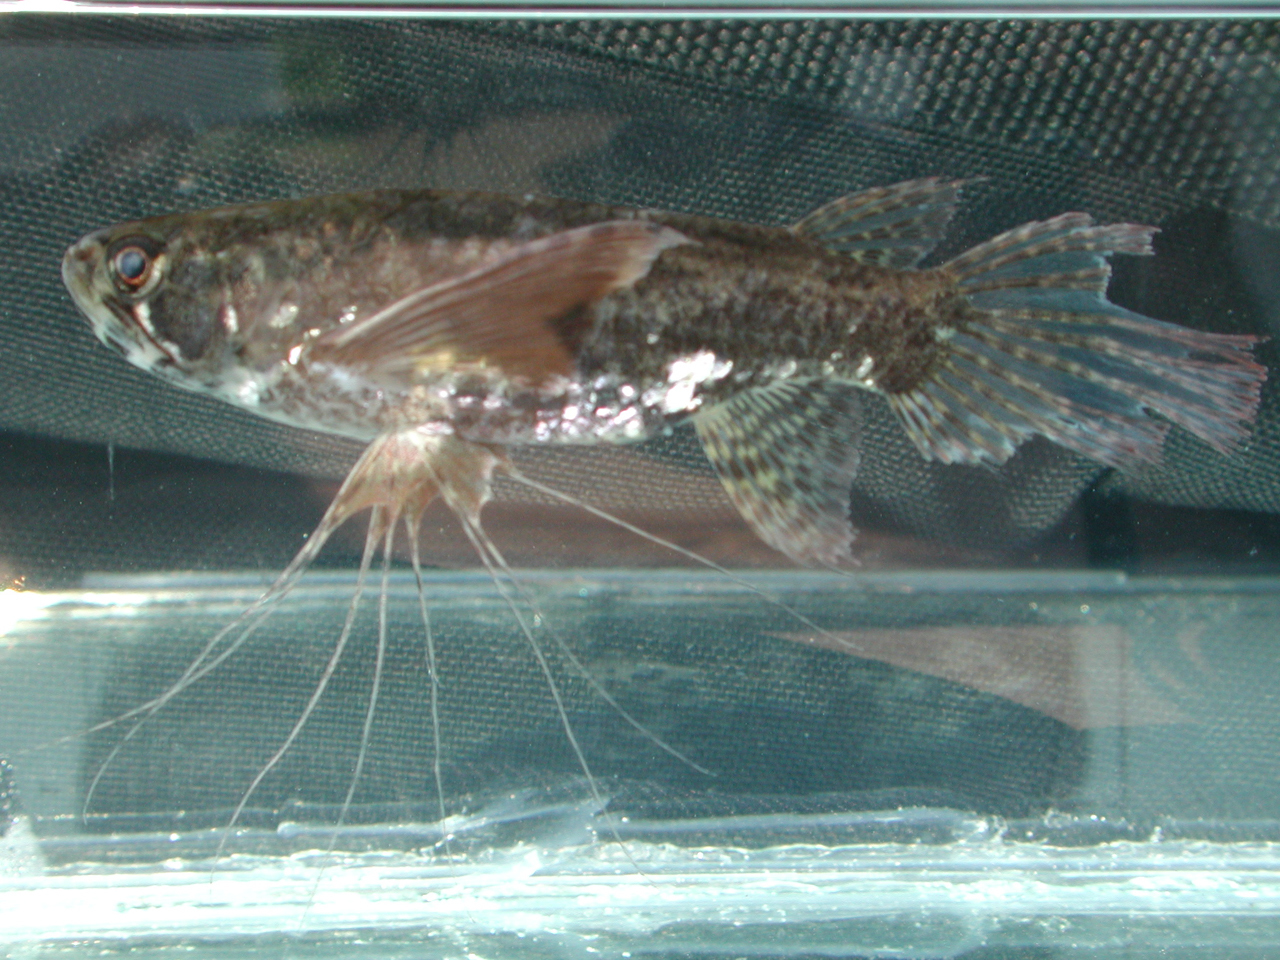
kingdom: Animalia
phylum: Chordata
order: Osteoglossiformes
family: Pantodontidae
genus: Pantodon
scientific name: Pantodon buchholzi
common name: Freshwater butterflyfish
